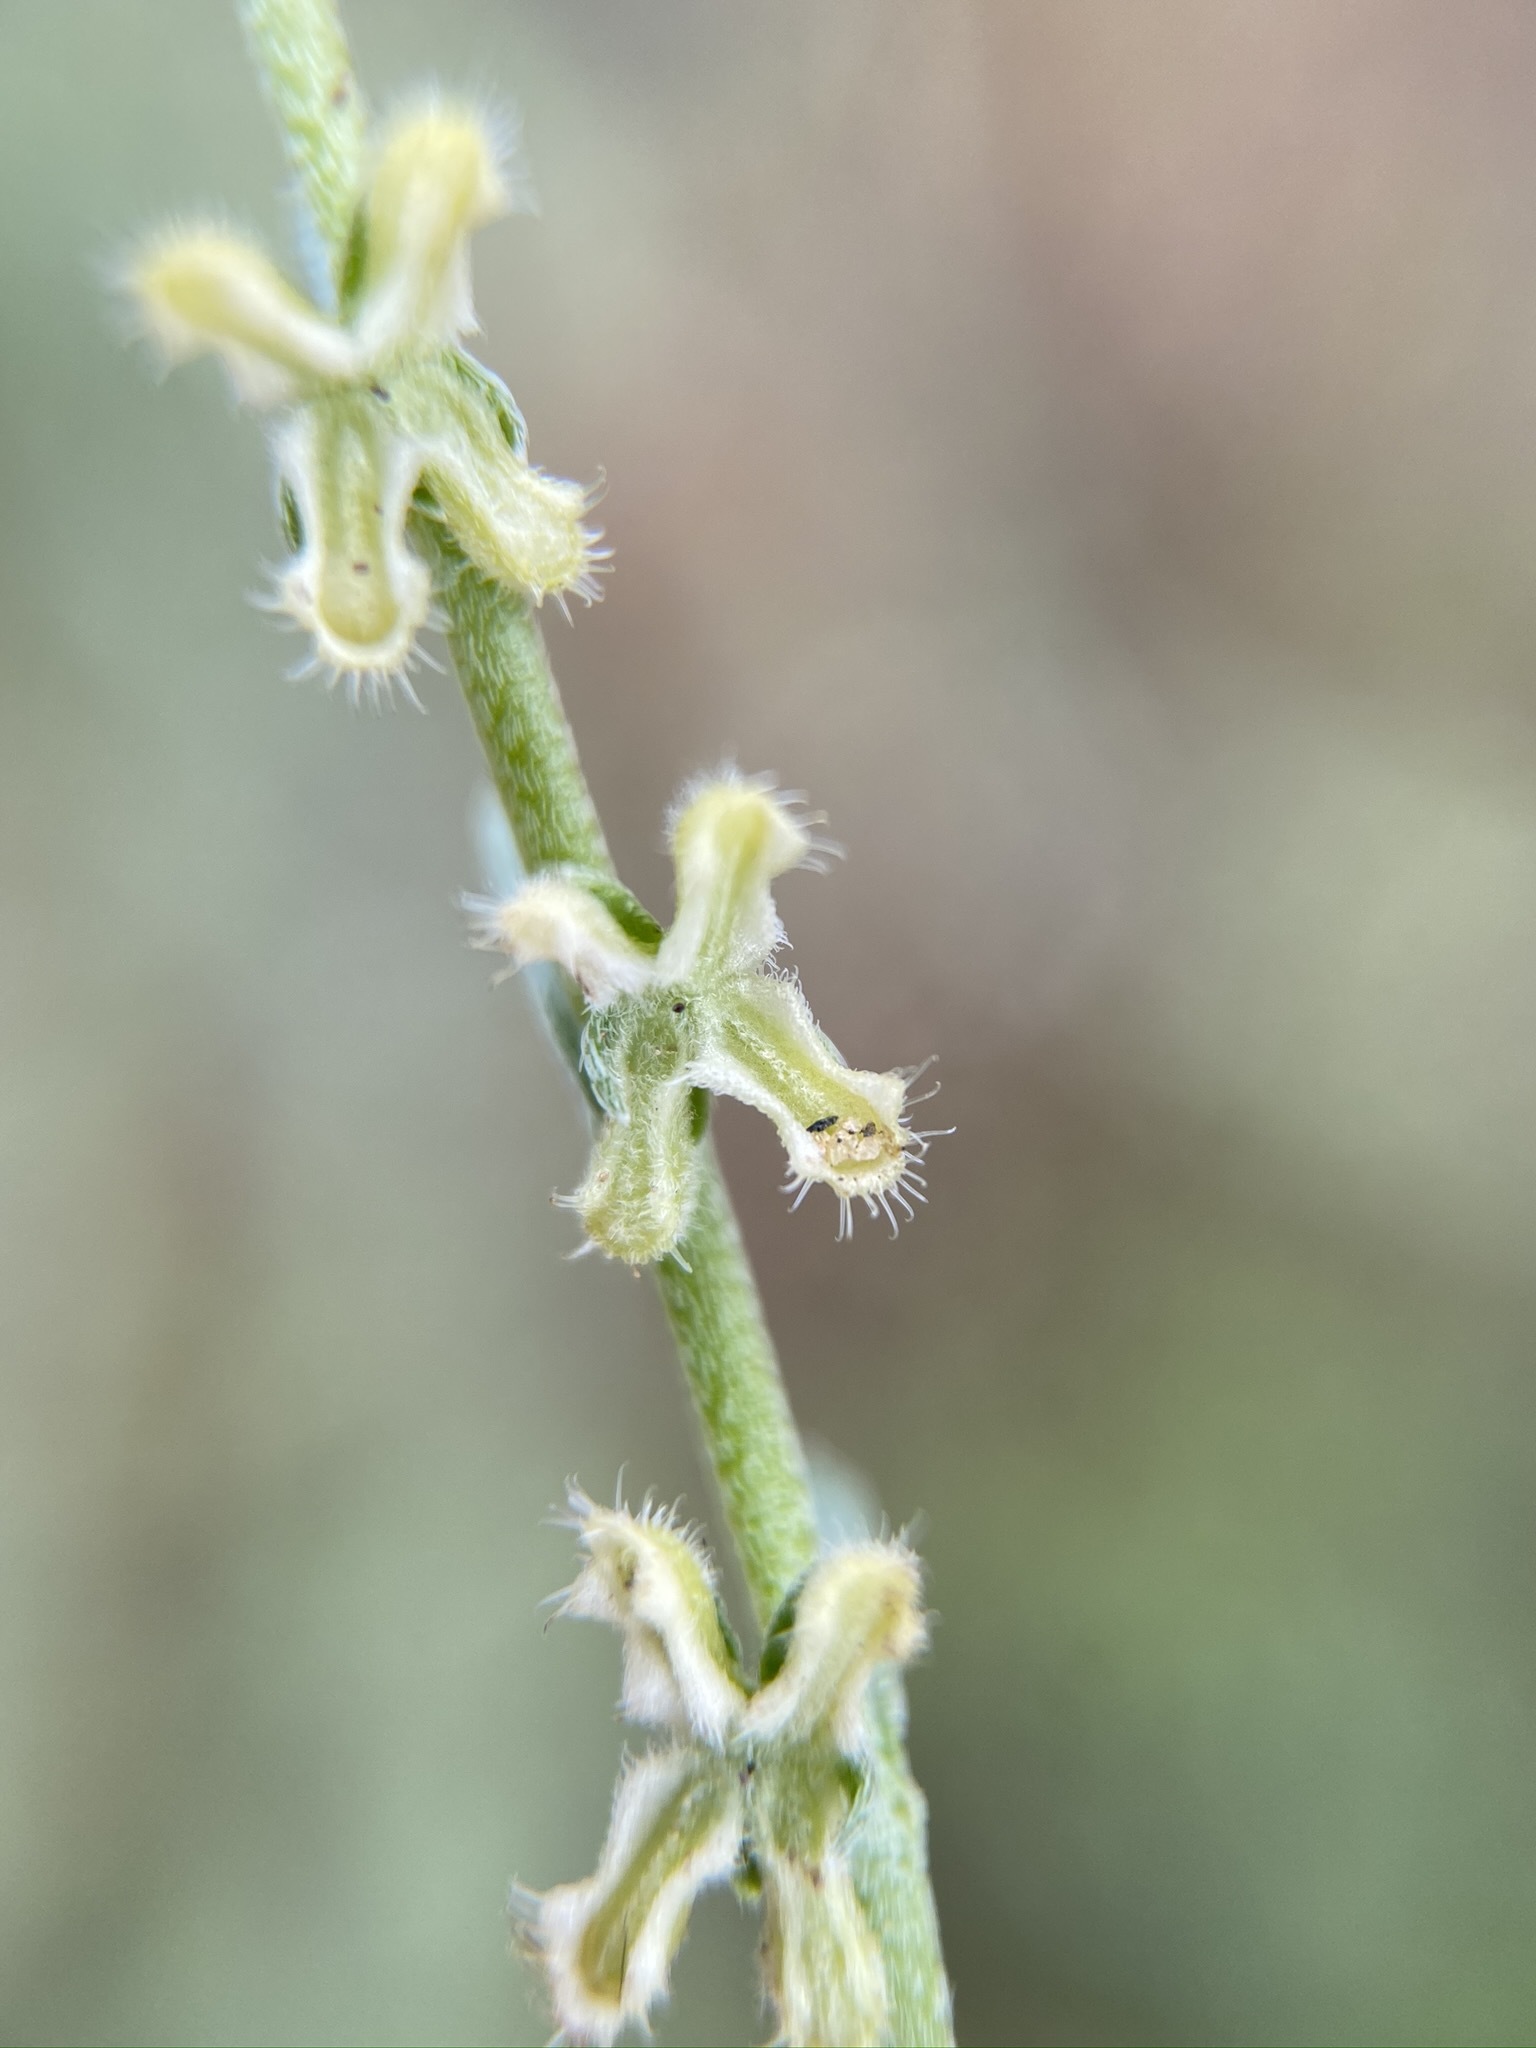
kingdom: Plantae
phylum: Tracheophyta
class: Magnoliopsida
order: Boraginales
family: Boraginaceae
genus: Pectocarya
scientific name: Pectocarya penicillata
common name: Short-leaved combseed
